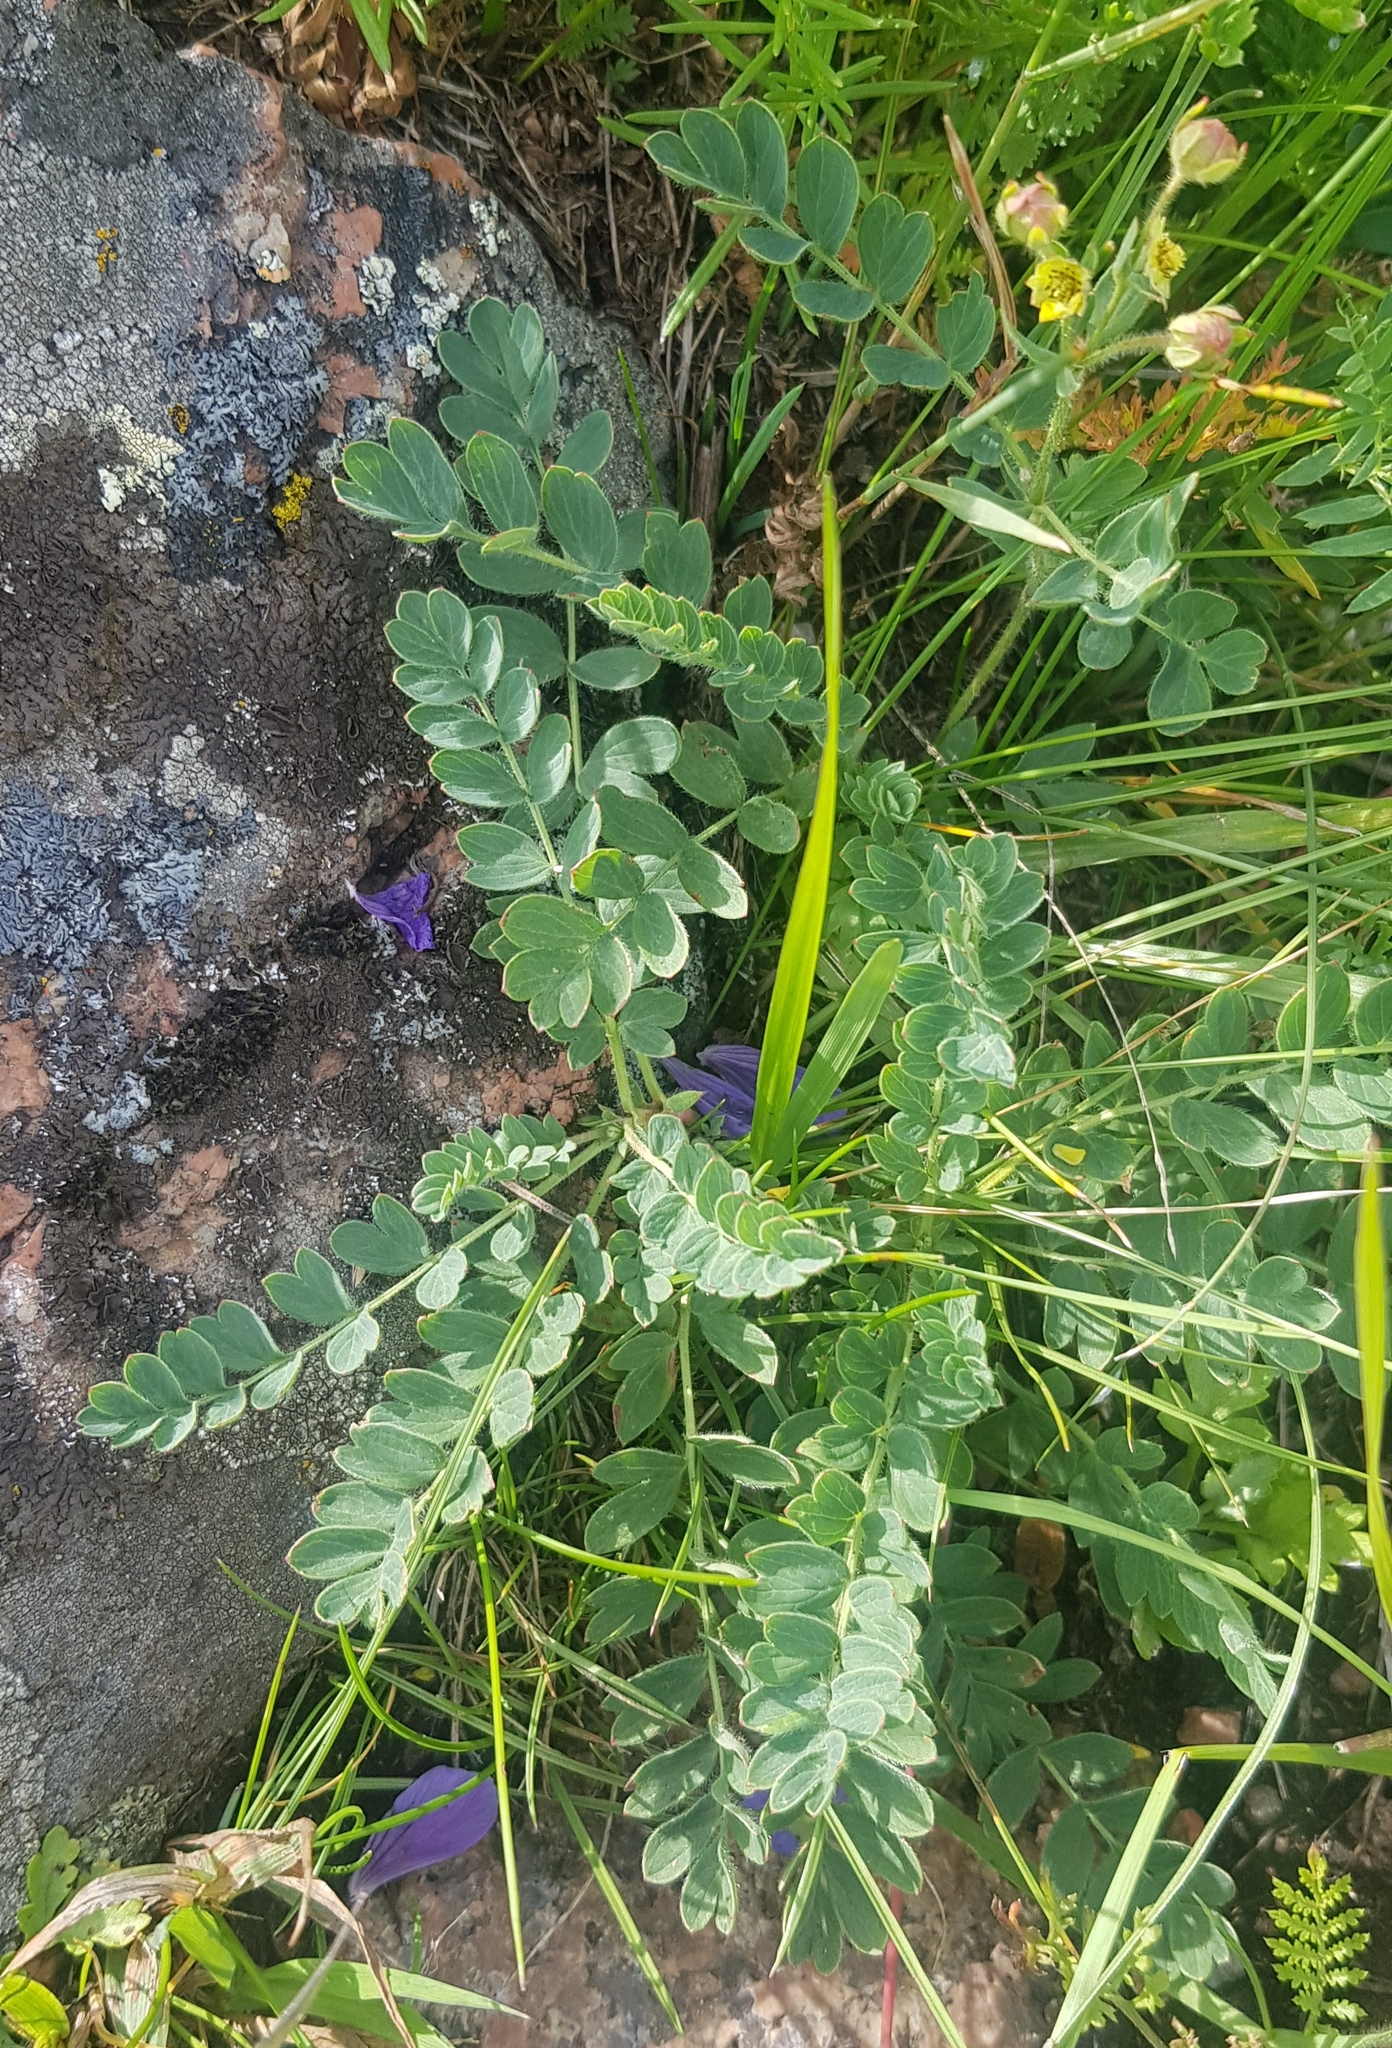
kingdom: Plantae
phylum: Tracheophyta
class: Magnoliopsida
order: Rosales
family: Rosaceae
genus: Sibbaldianthe
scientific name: Sibbaldianthe bifurca
